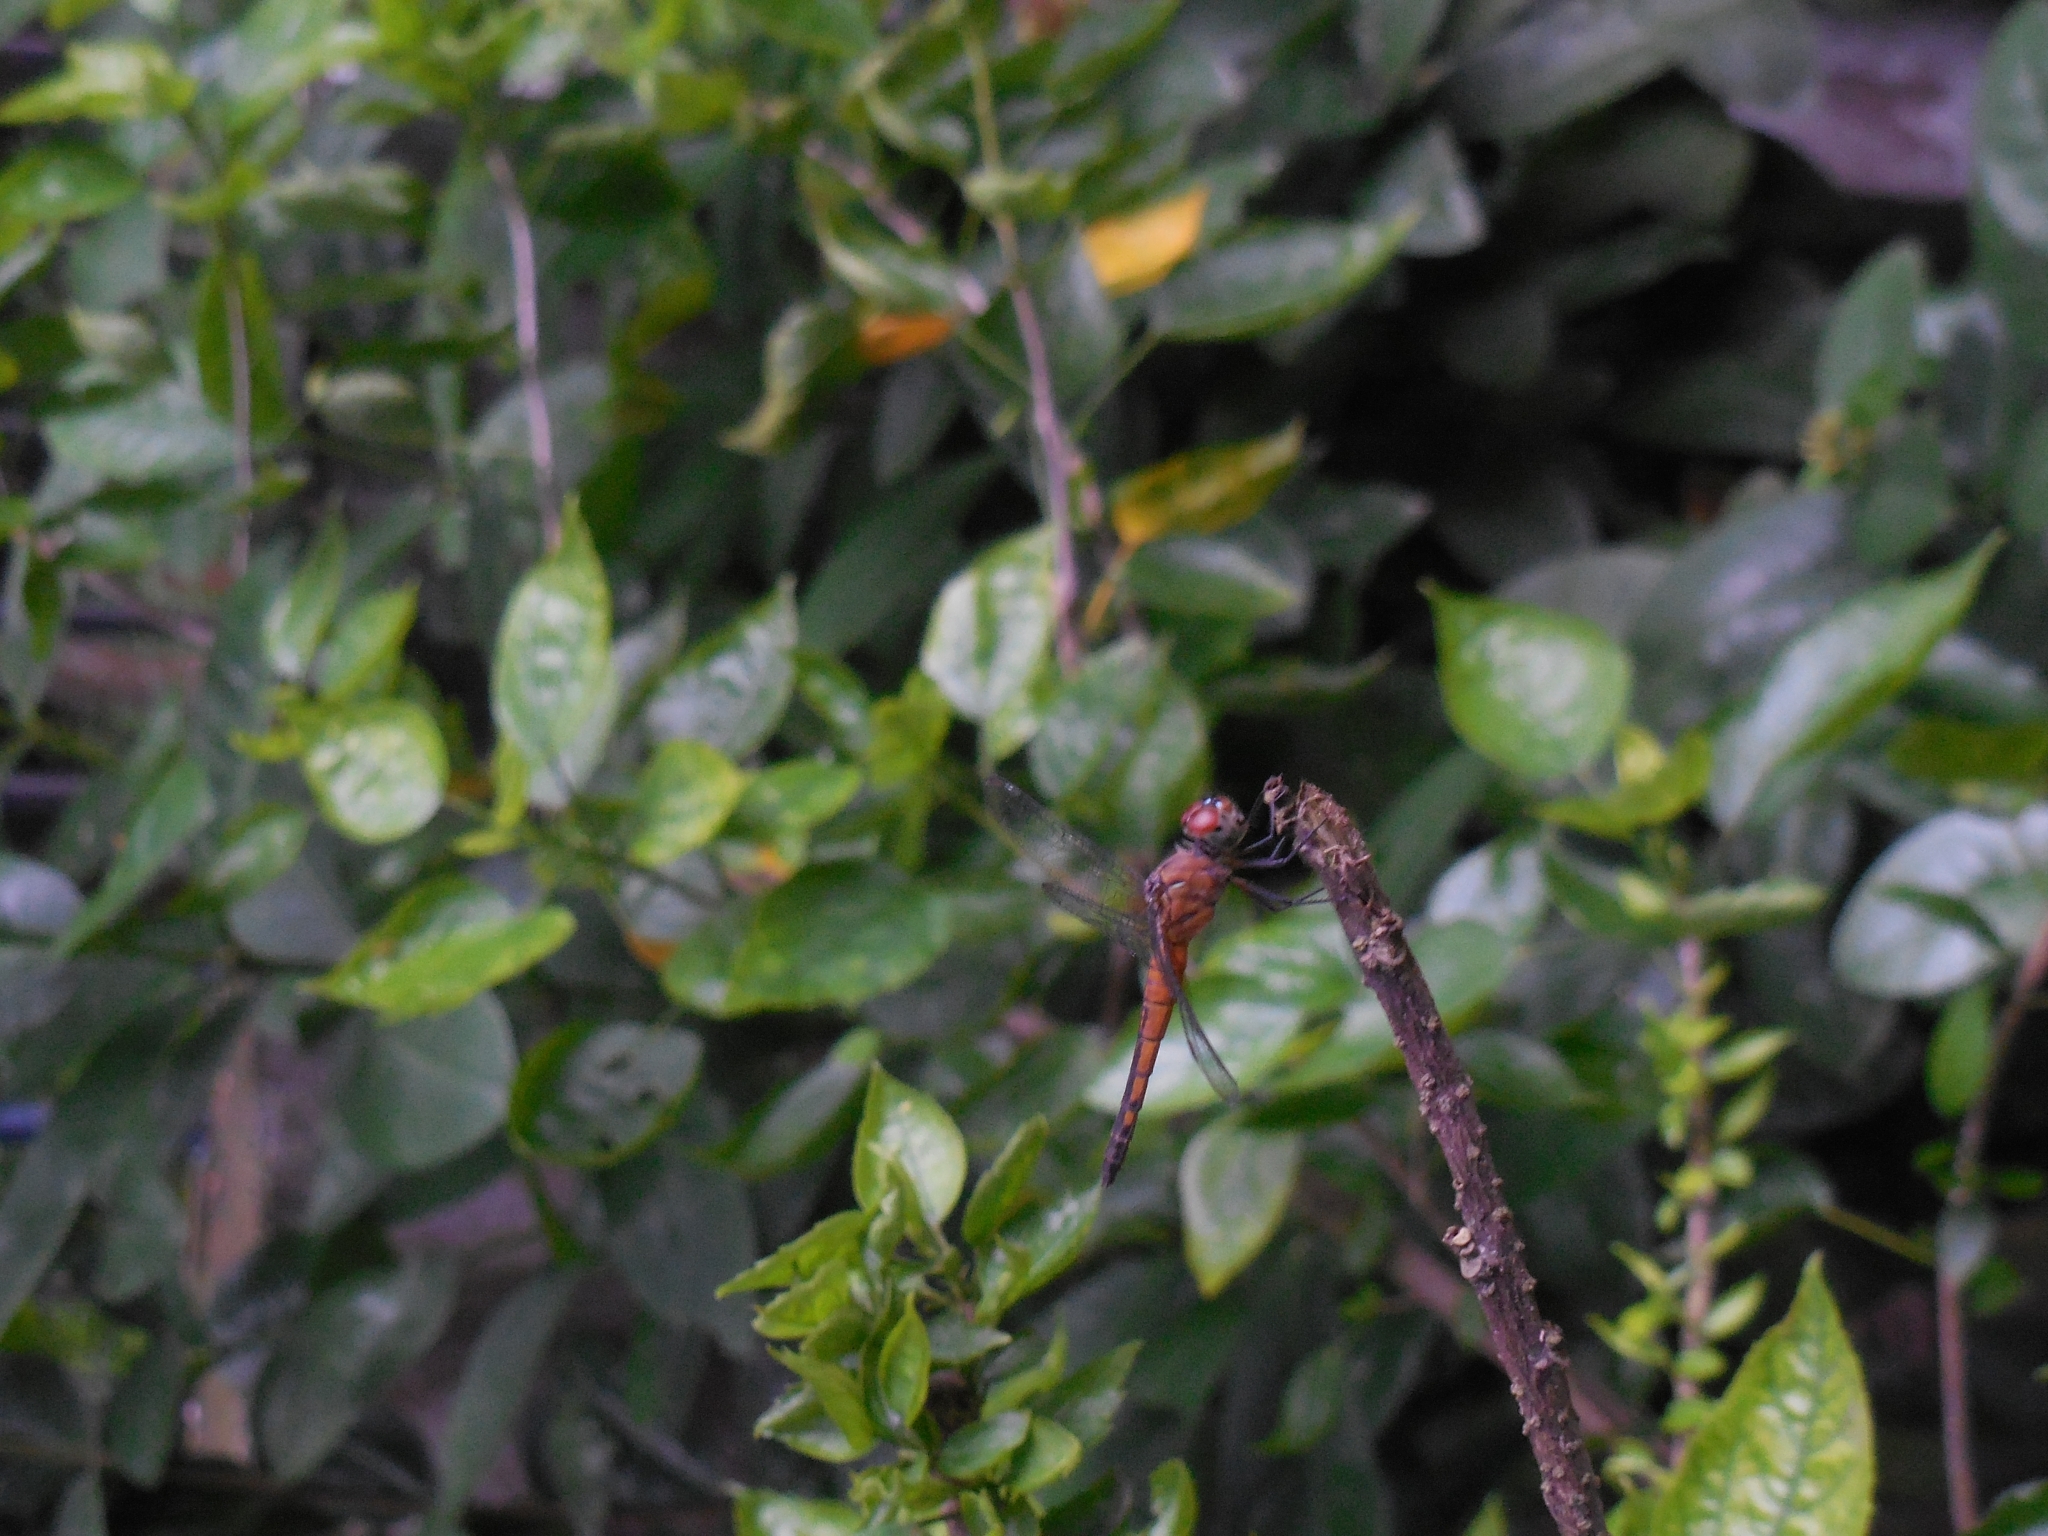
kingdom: Animalia
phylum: Arthropoda
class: Insecta
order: Odonata
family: Libellulidae
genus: Brachydiplax
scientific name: Brachydiplax chalybea
